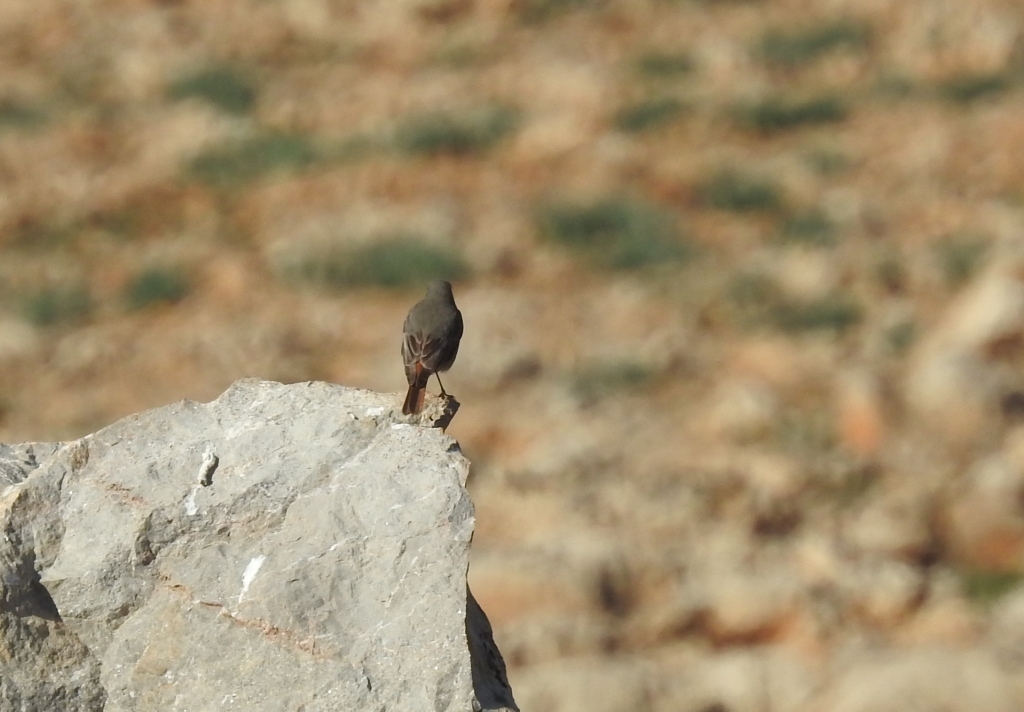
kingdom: Animalia
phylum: Chordata
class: Aves
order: Passeriformes
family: Muscicapidae
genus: Phoenicurus
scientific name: Phoenicurus ochruros
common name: Black redstart
